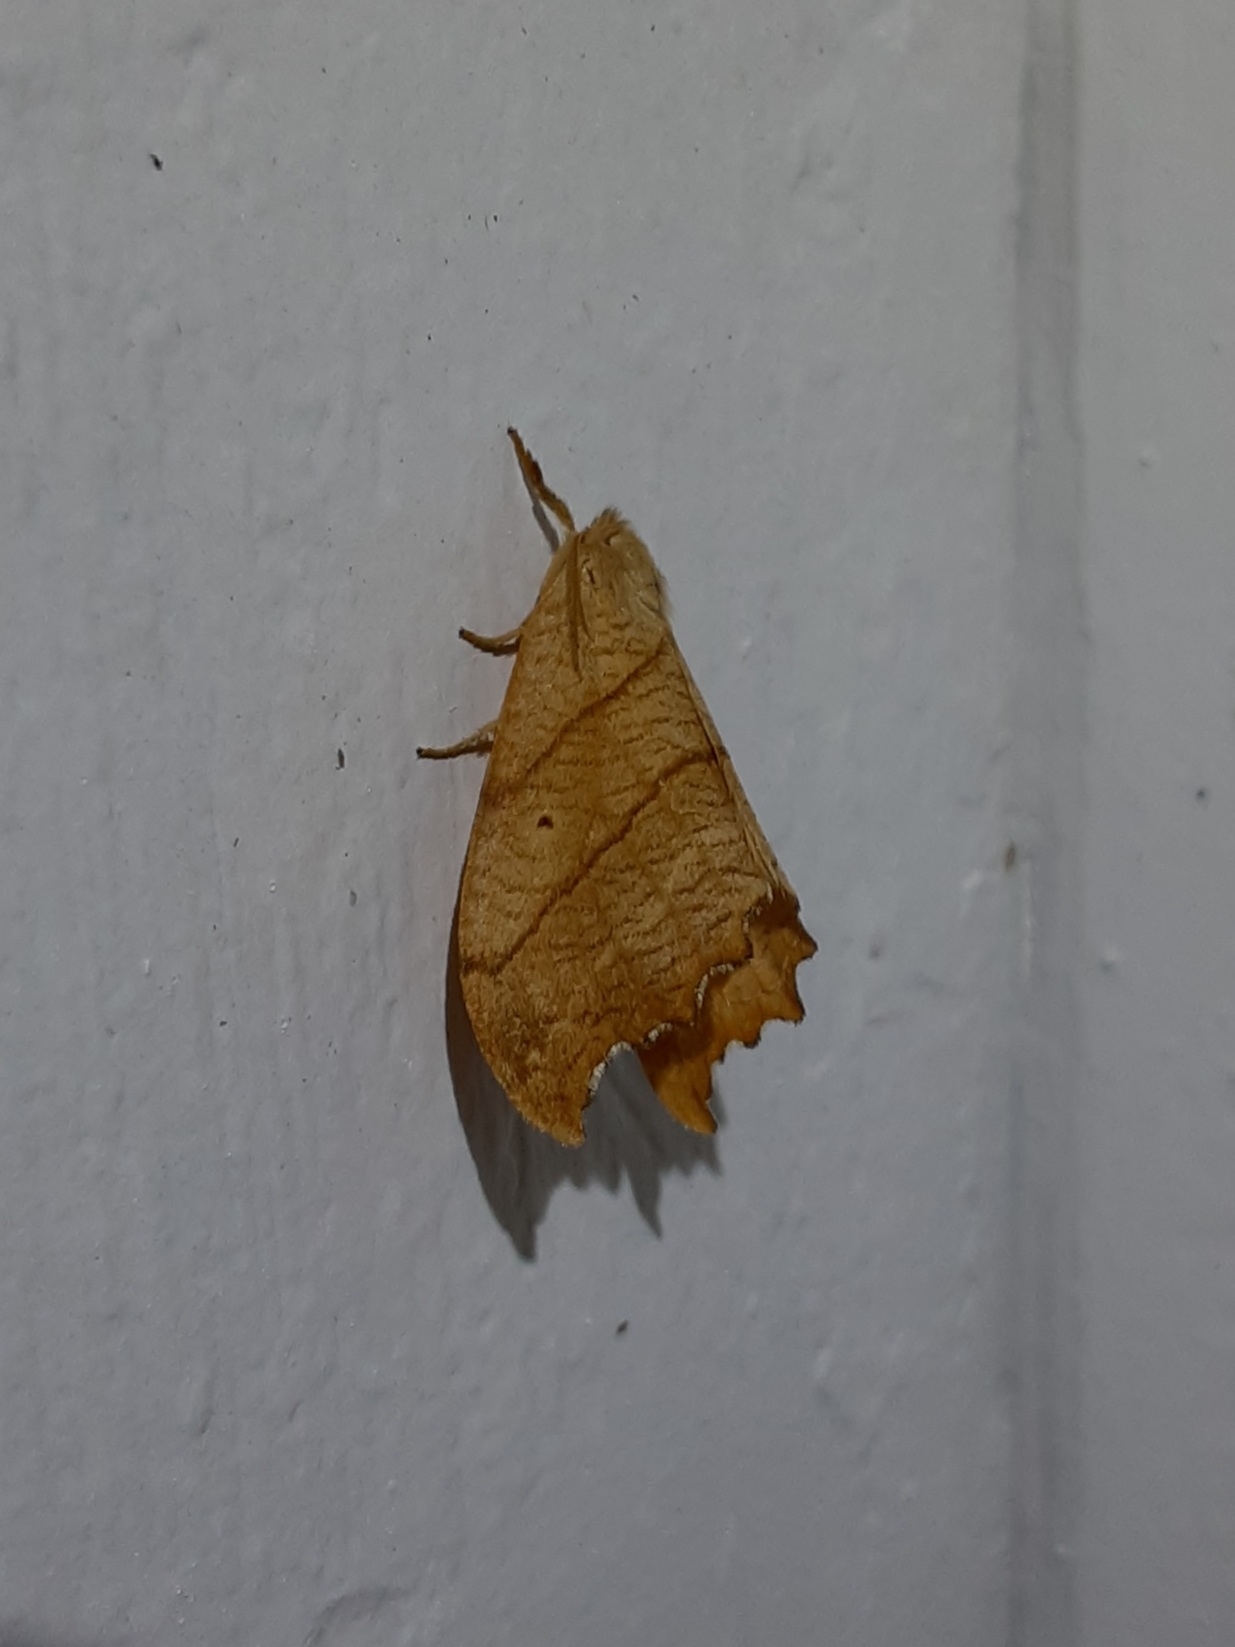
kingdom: Animalia
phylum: Arthropoda
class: Insecta
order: Lepidoptera
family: Drepanidae
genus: Falcaria
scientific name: Falcaria bilineata
